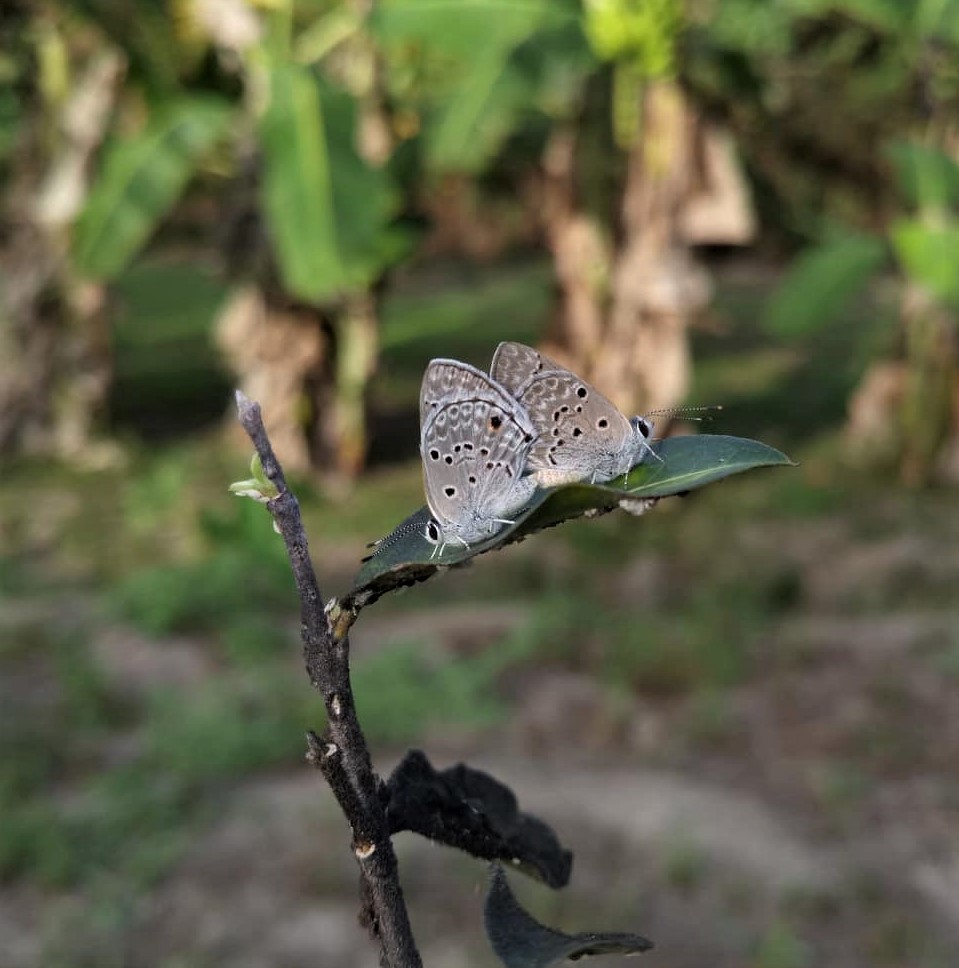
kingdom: Animalia
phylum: Arthropoda
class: Insecta
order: Lepidoptera
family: Lycaenidae
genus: Strymon
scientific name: Strymon bubastus
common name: Bubastes hairstreak
